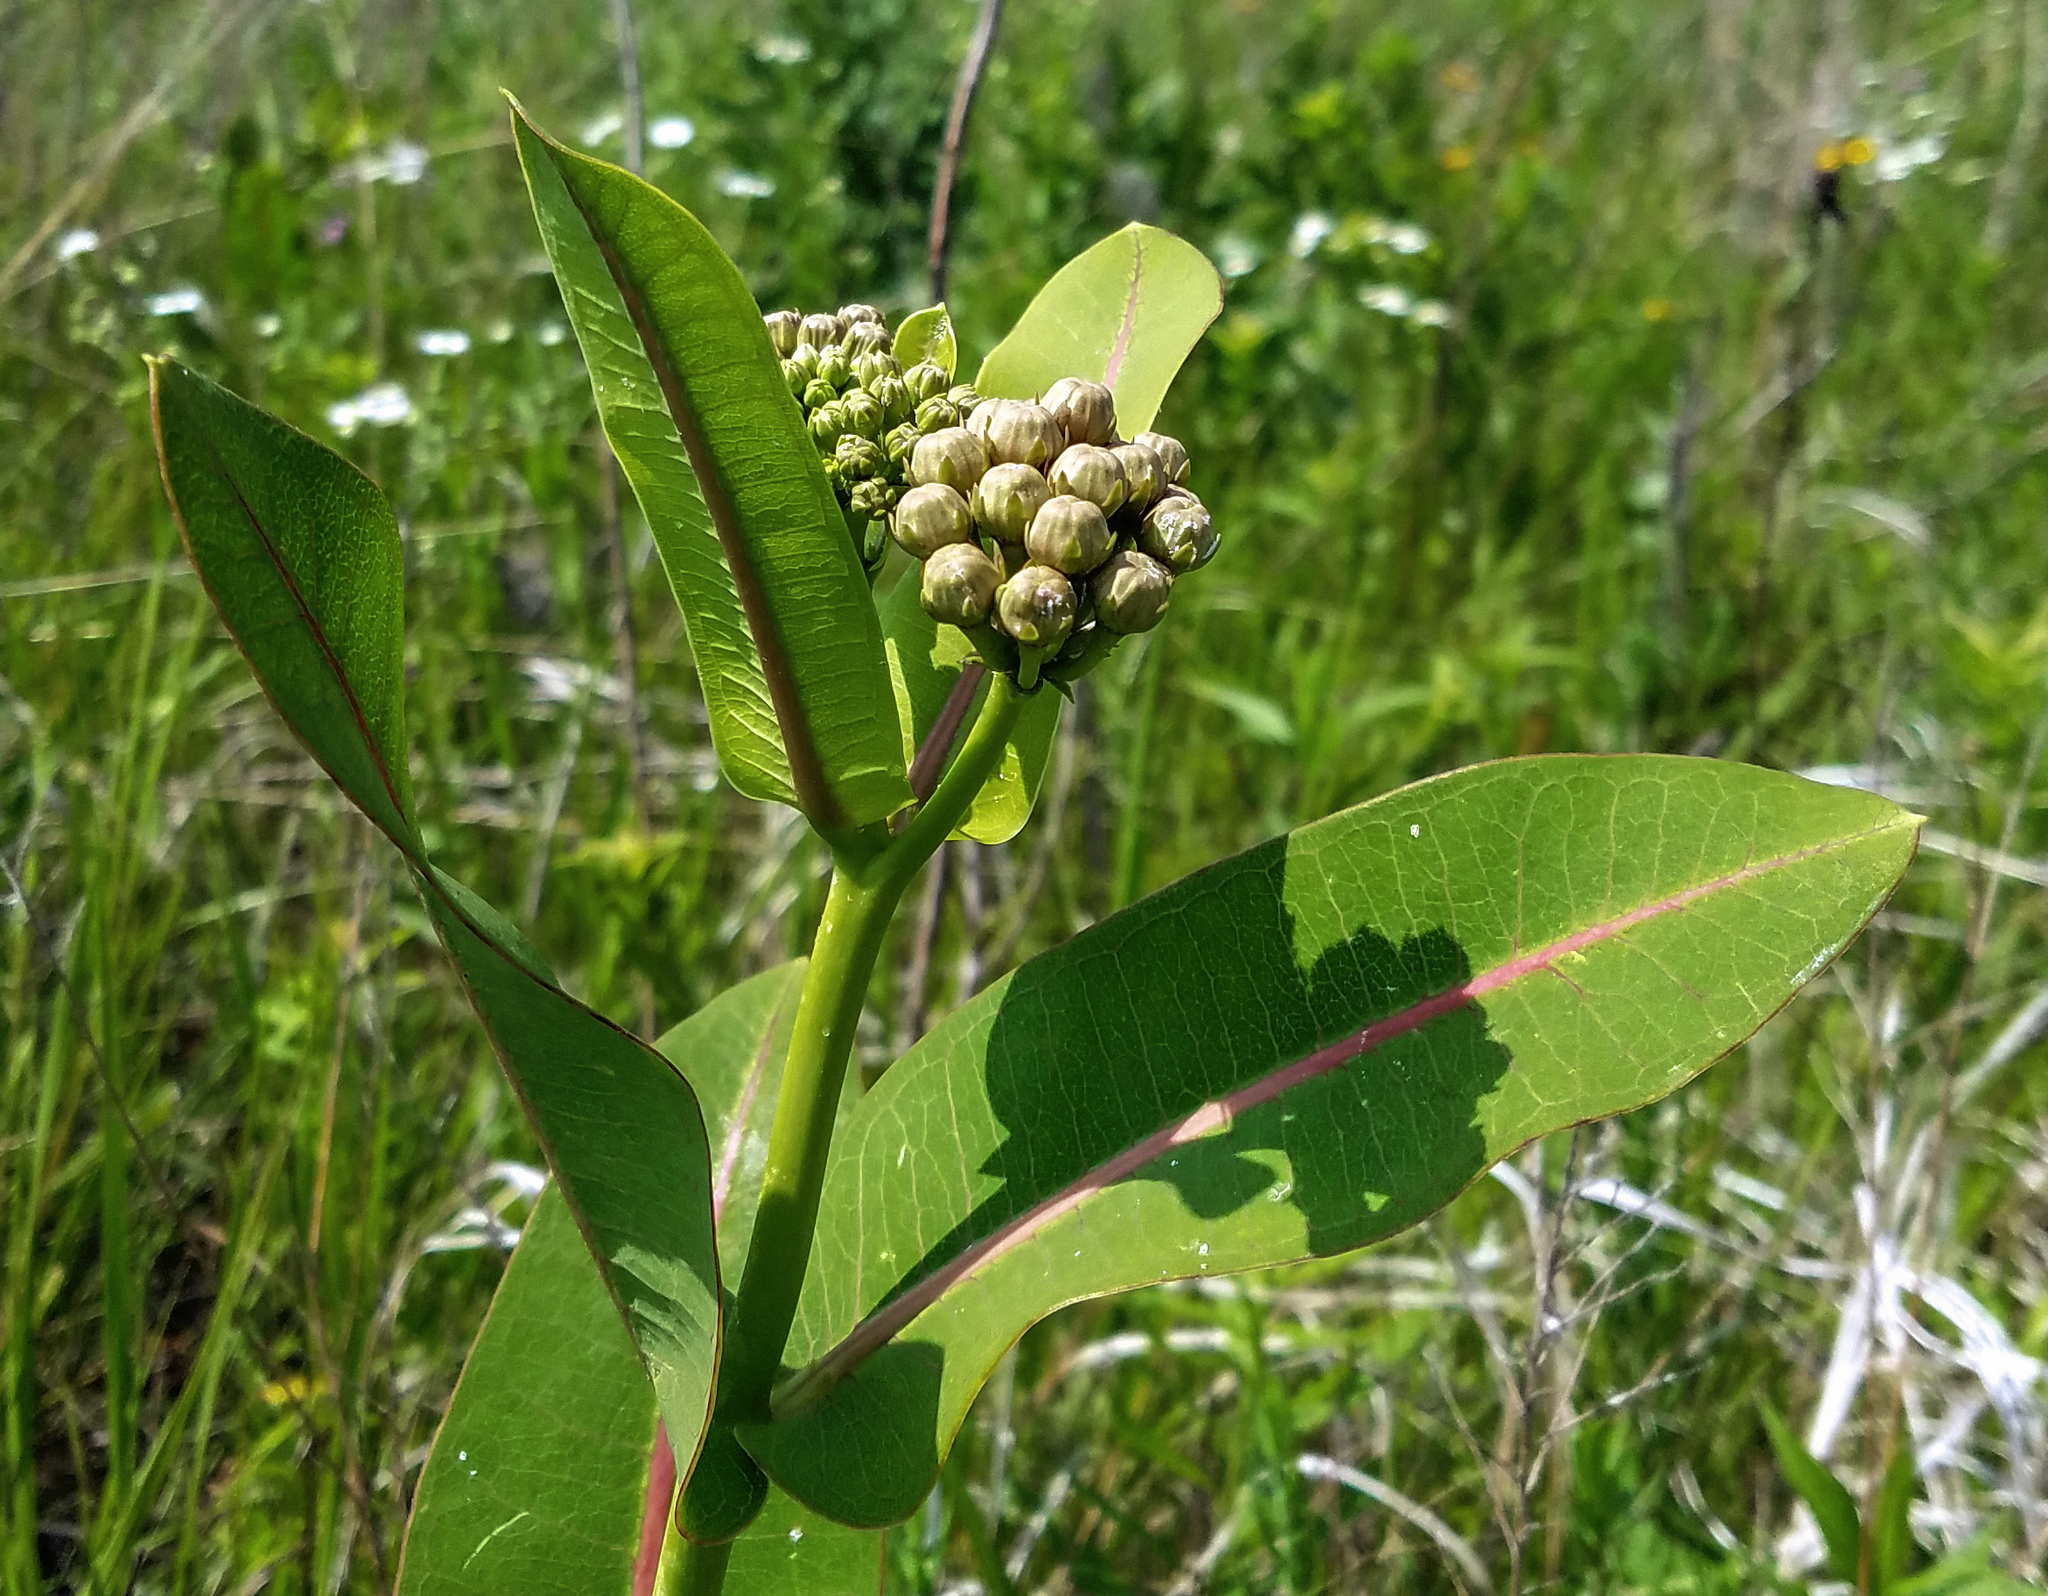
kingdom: Plantae
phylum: Tracheophyta
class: Magnoliopsida
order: Gentianales
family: Apocynaceae
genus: Asclepias
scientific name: Asclepias sullivantii
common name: Prairie milkweed
